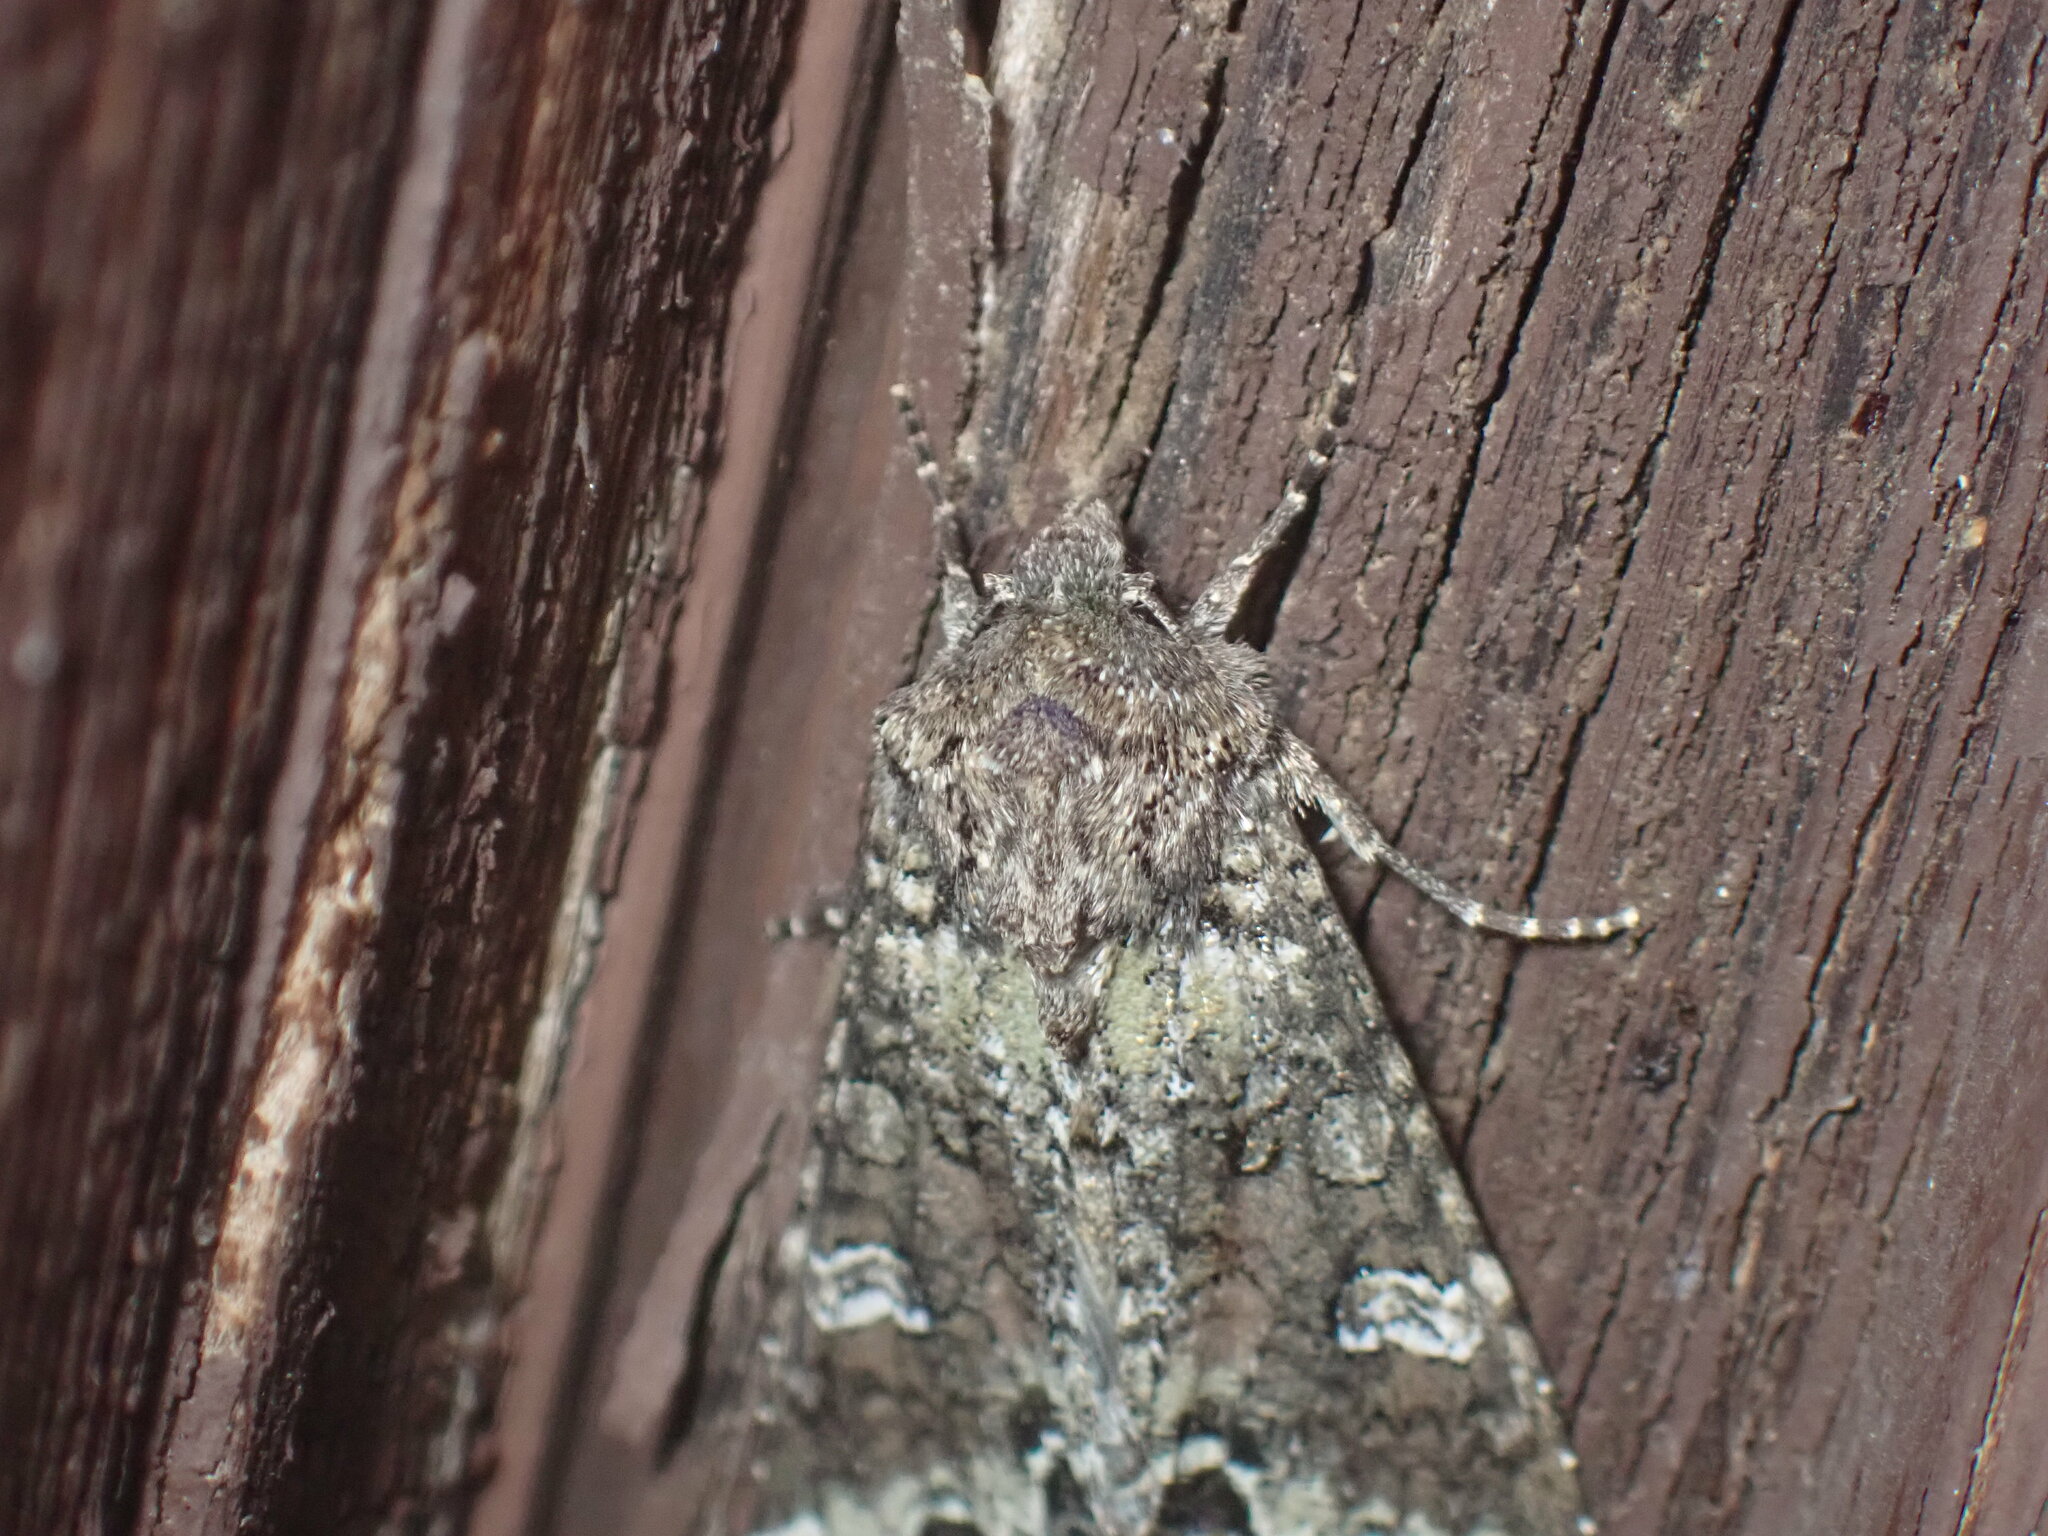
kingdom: Animalia
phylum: Arthropoda
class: Insecta
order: Lepidoptera
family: Noctuidae
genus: Mamestra
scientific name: Mamestra configurata
